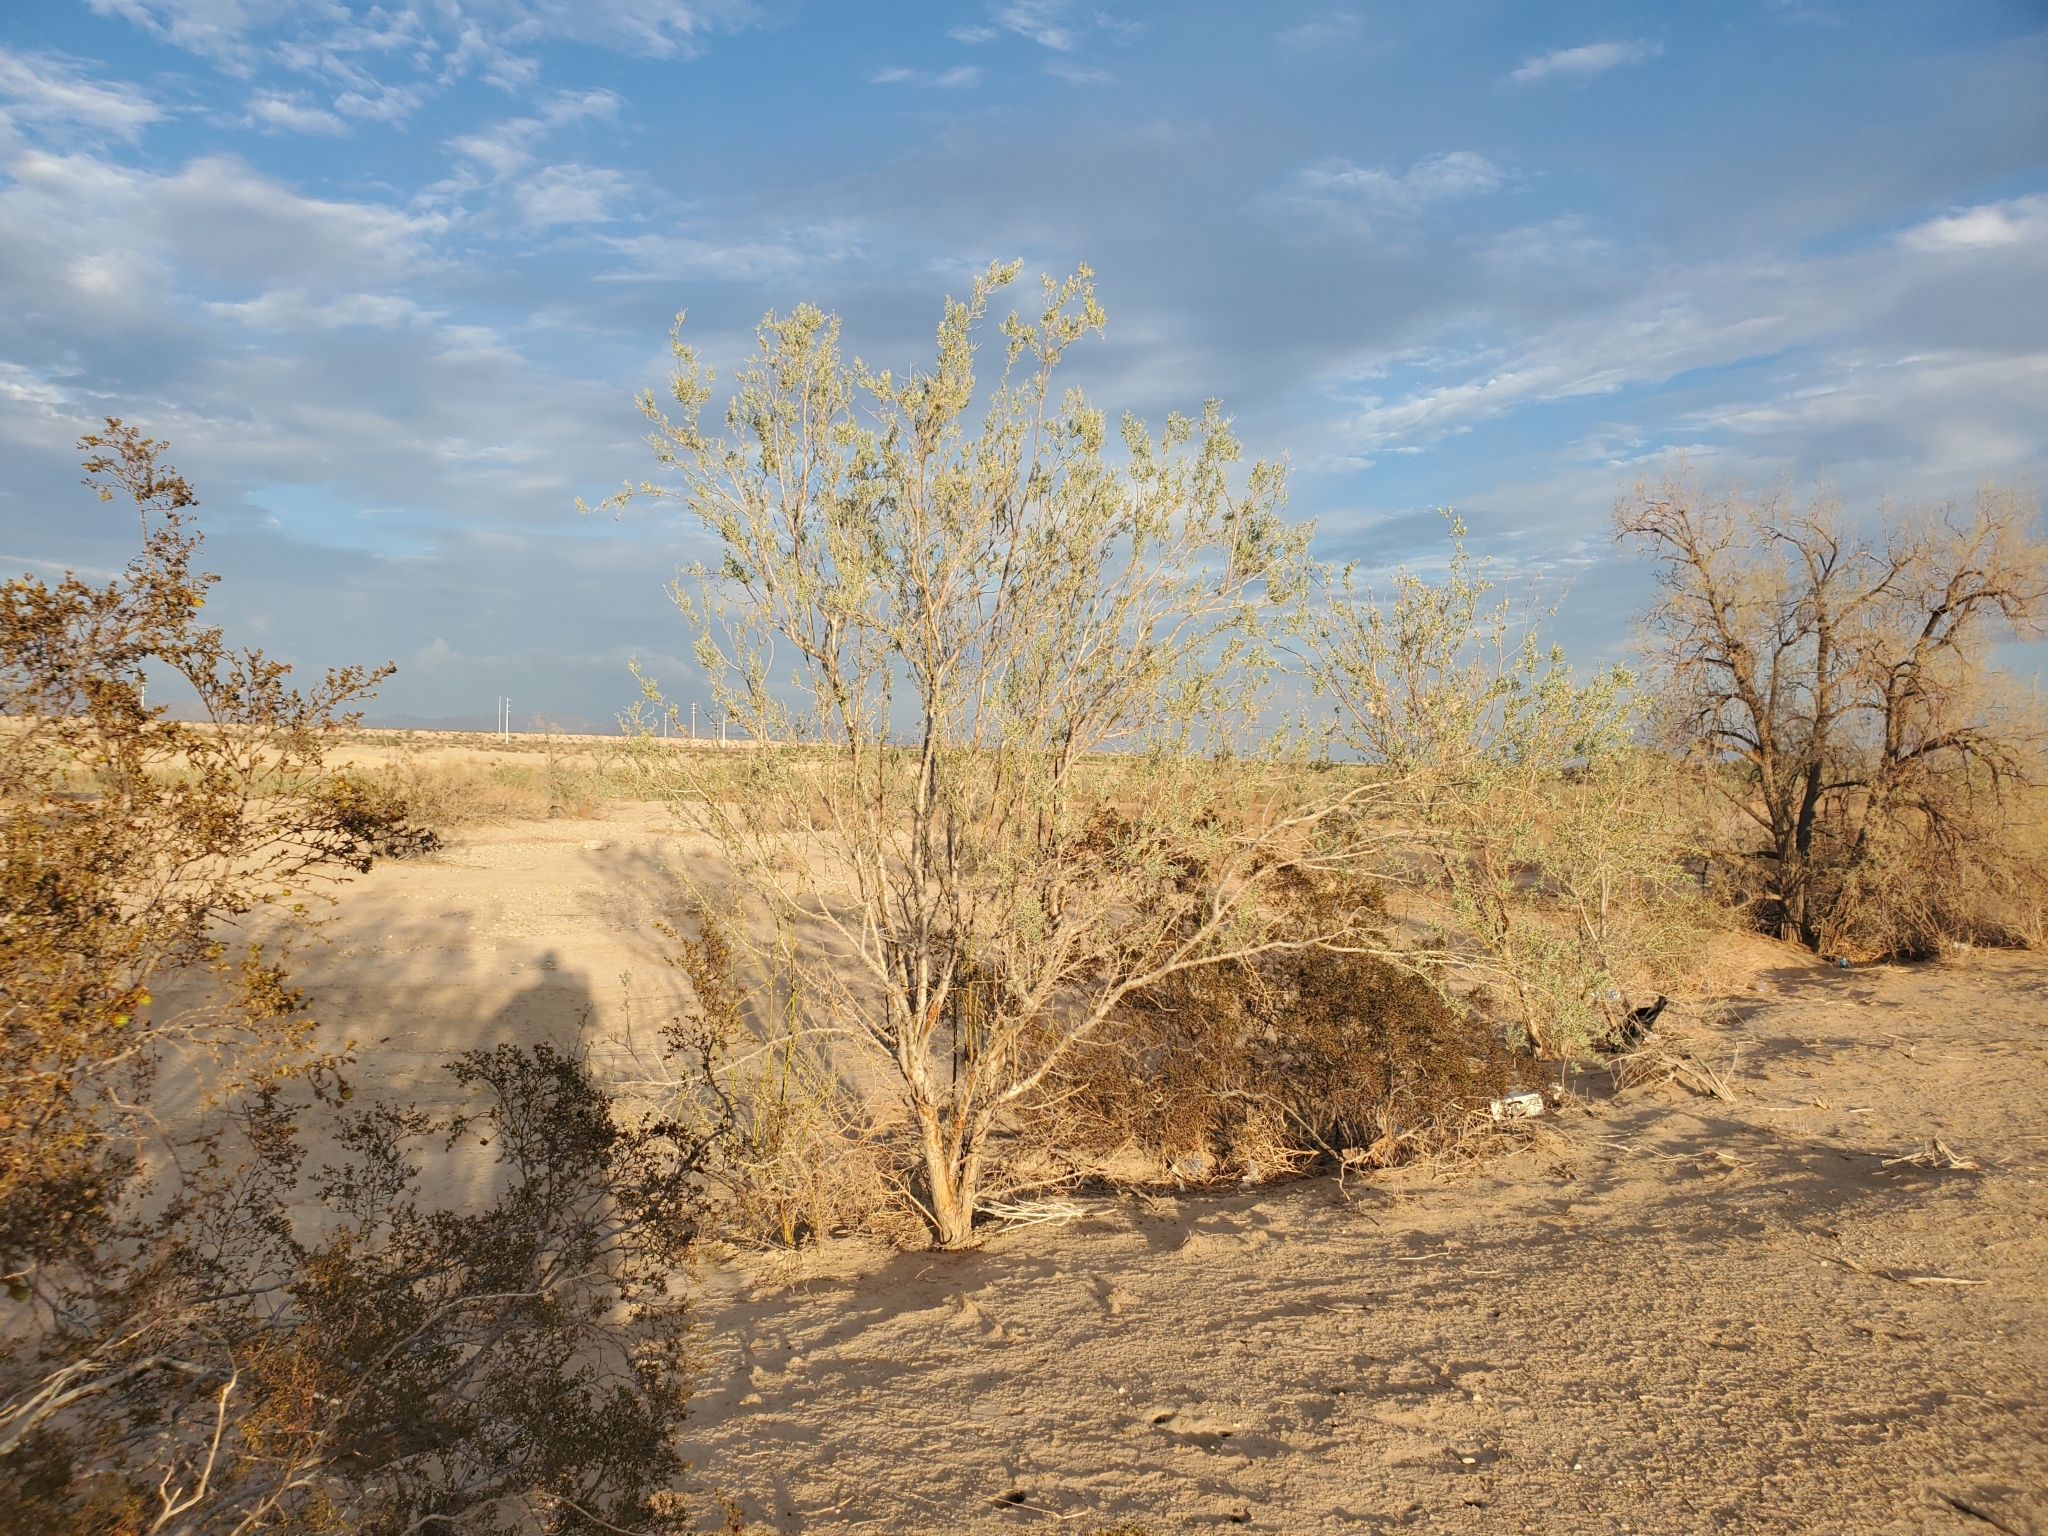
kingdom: Plantae
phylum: Tracheophyta
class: Magnoliopsida
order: Fabales
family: Fabaceae
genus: Olneya
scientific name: Olneya tesota
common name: Desert ironwood
